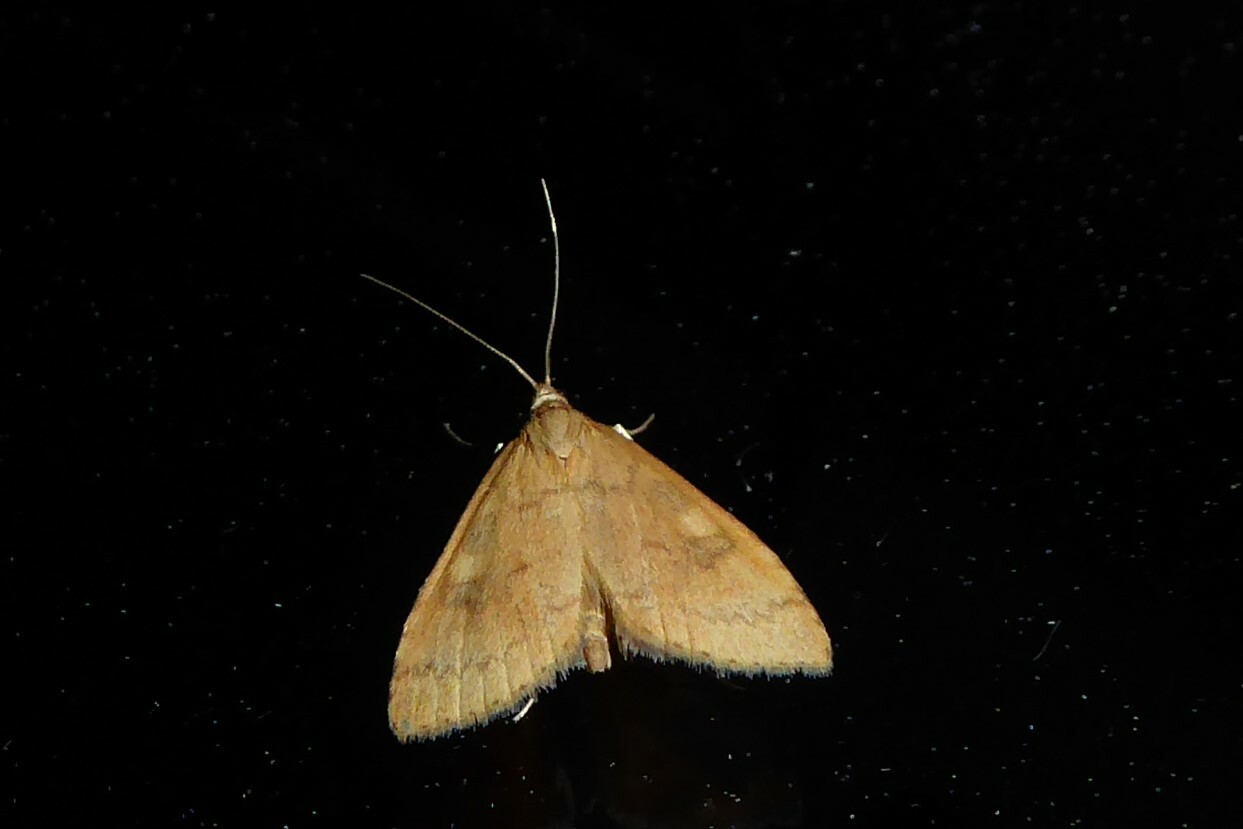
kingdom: Animalia
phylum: Arthropoda
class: Insecta
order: Lepidoptera
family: Crambidae
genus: Udea
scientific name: Udea Mnesictena flavidalis
